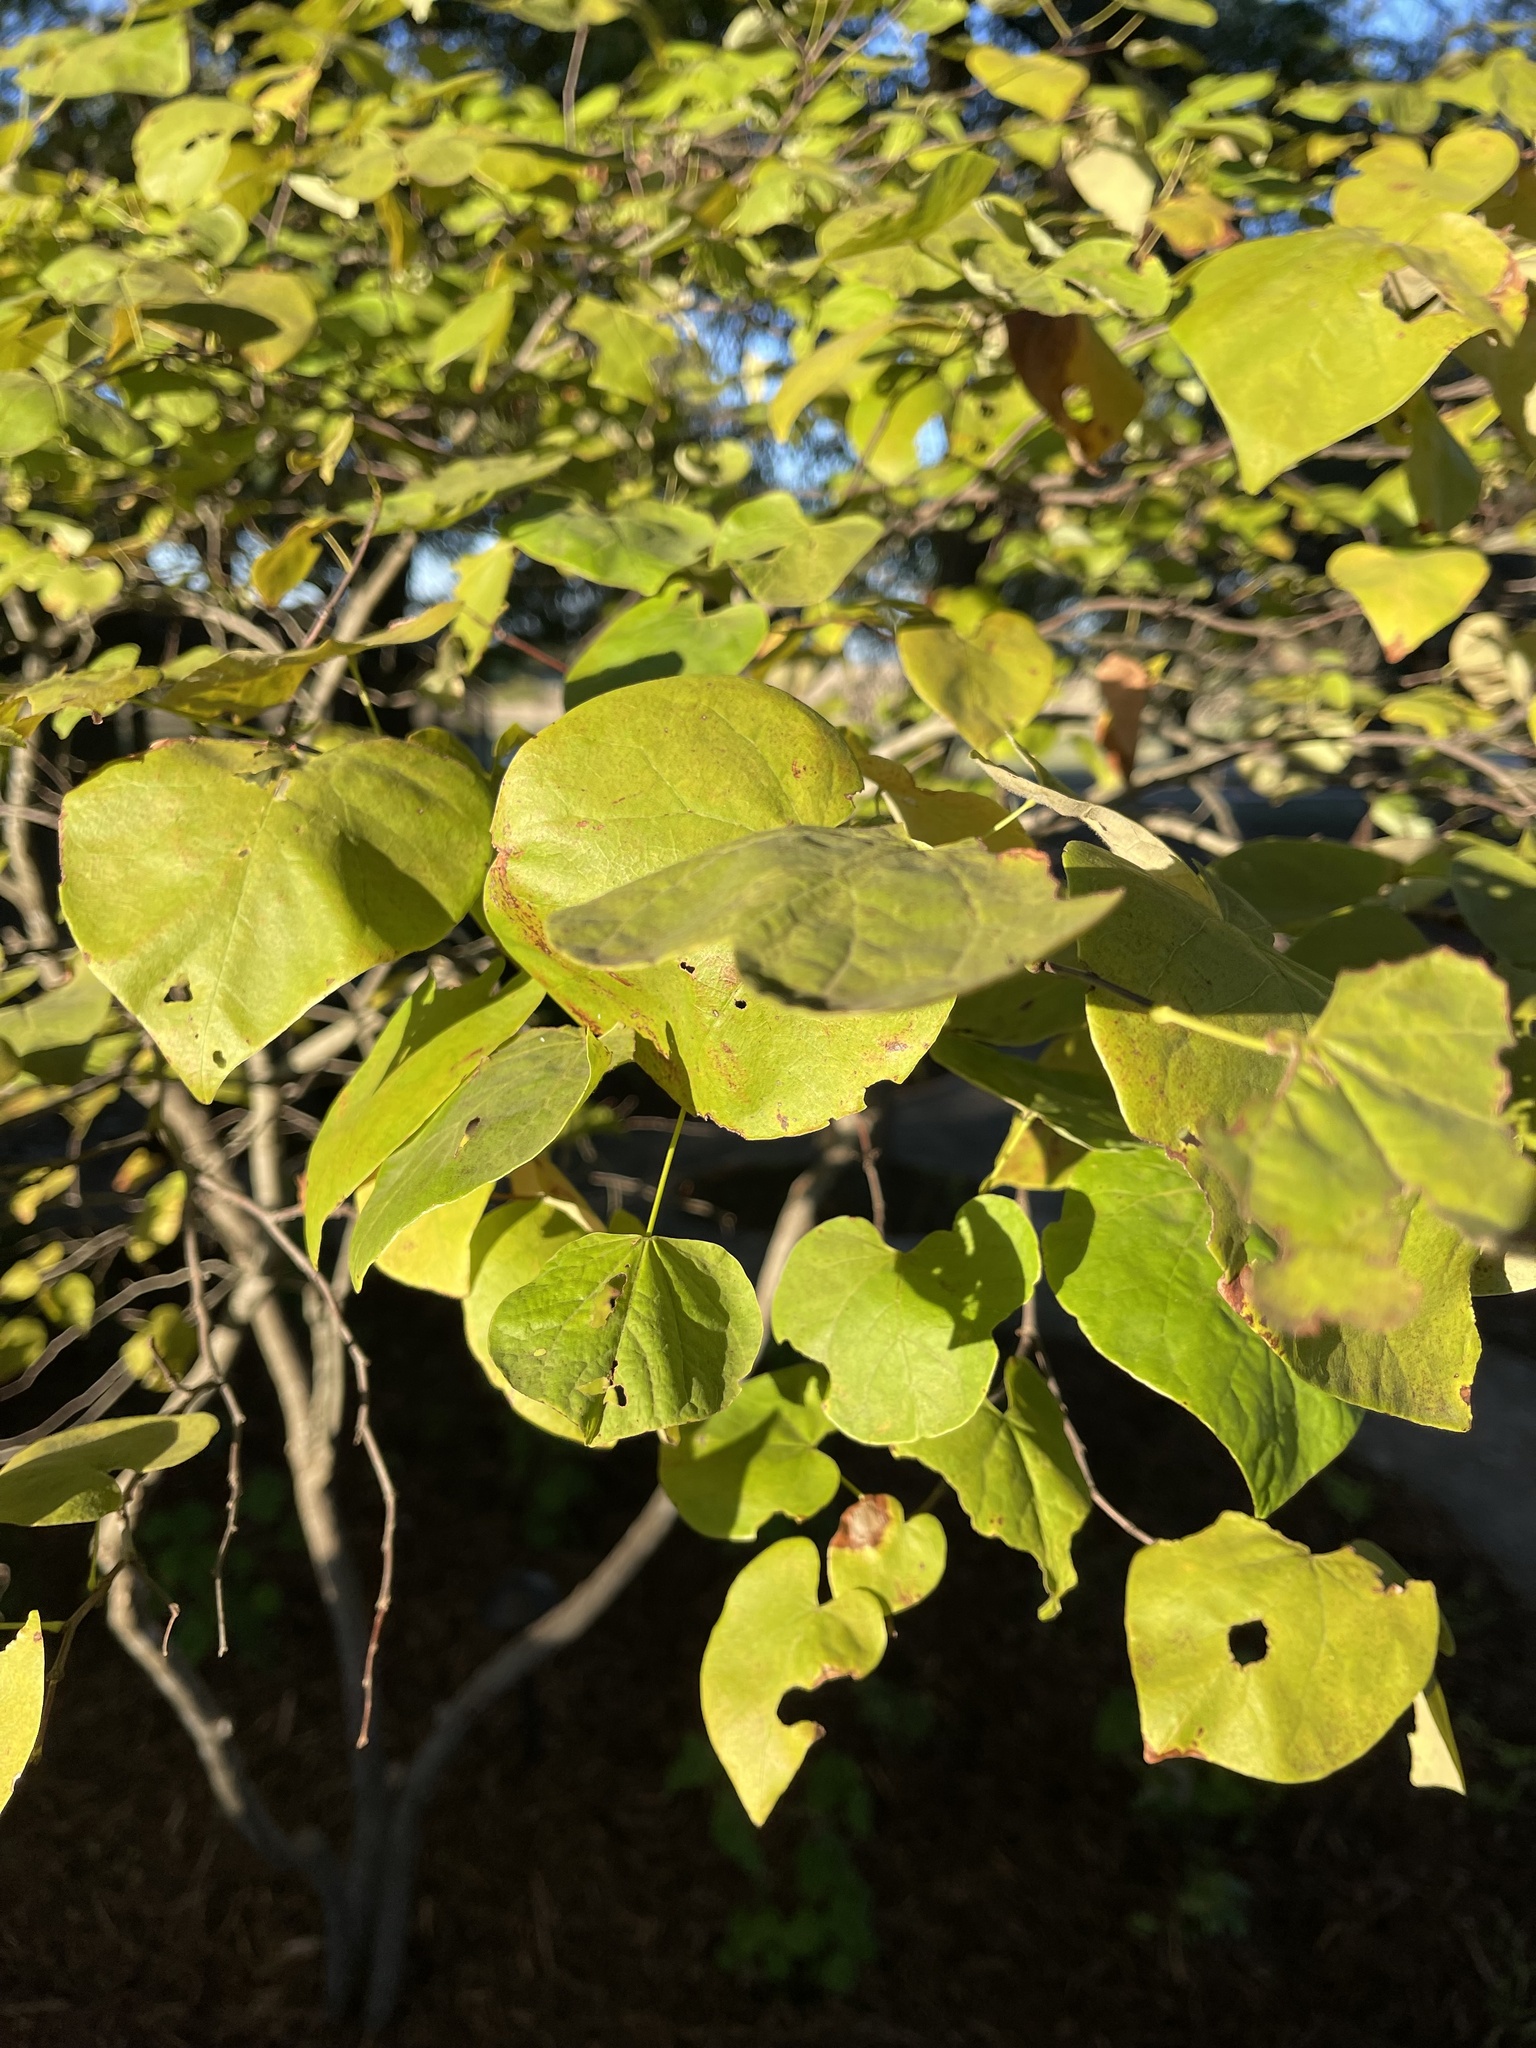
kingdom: Plantae
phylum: Tracheophyta
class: Magnoliopsida
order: Fabales
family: Fabaceae
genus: Cercis
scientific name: Cercis canadensis
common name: Eastern redbud
